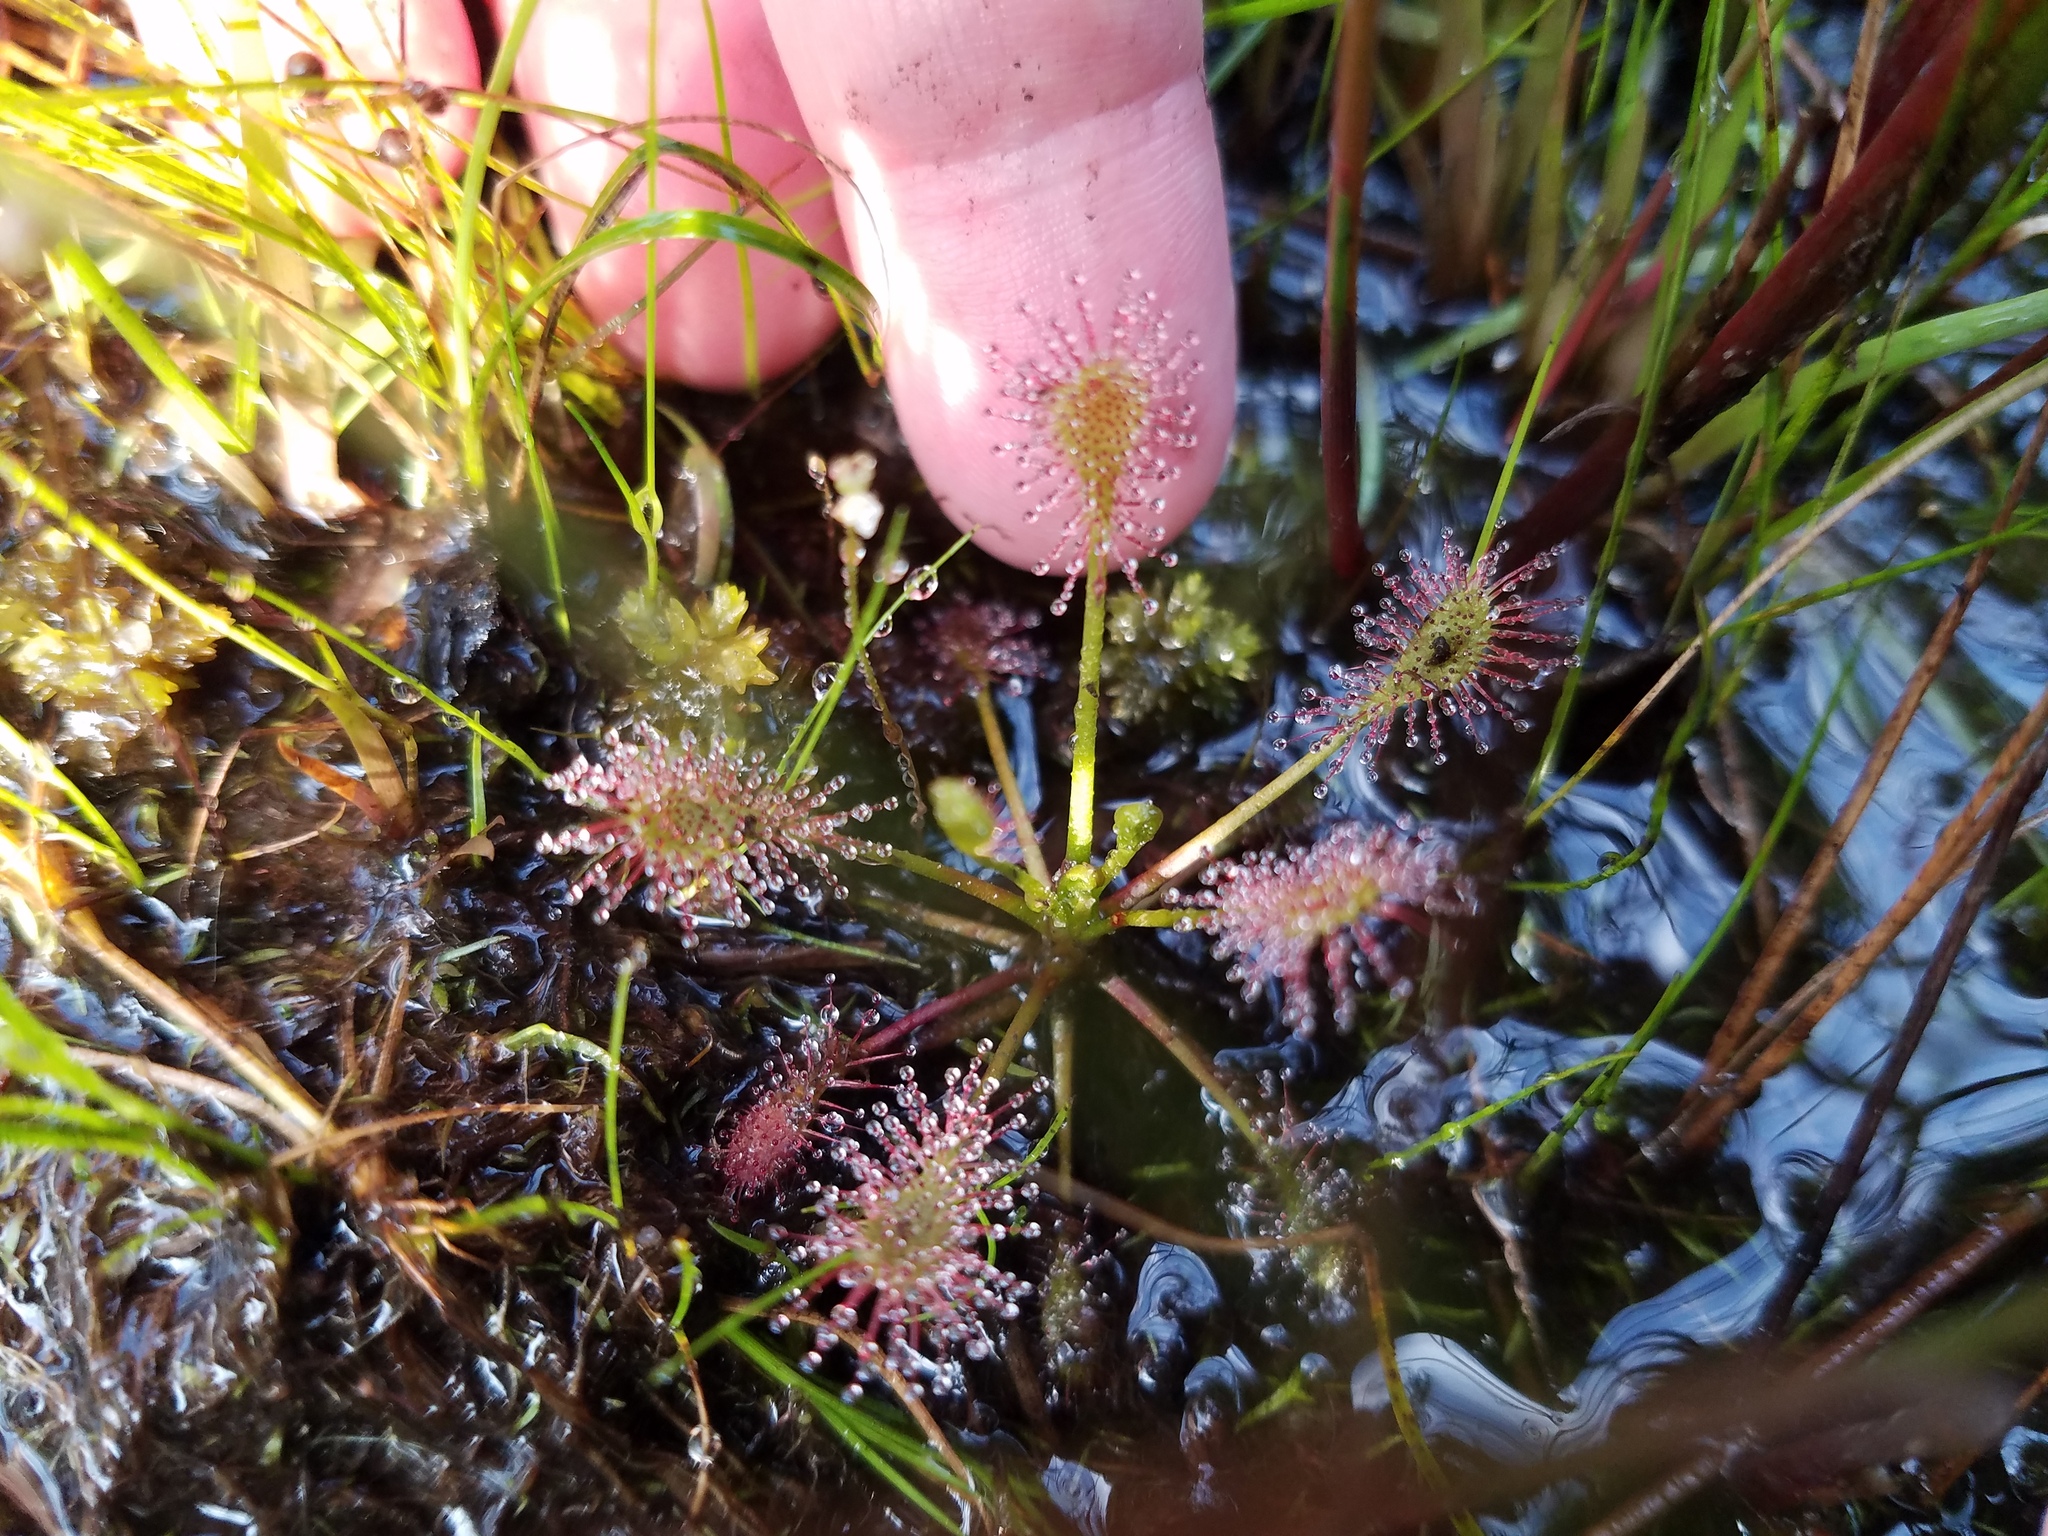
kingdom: Plantae
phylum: Tracheophyta
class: Magnoliopsida
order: Caryophyllales
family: Droseraceae
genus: Drosera
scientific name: Drosera intermedia
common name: Oblong-leaved sundew
